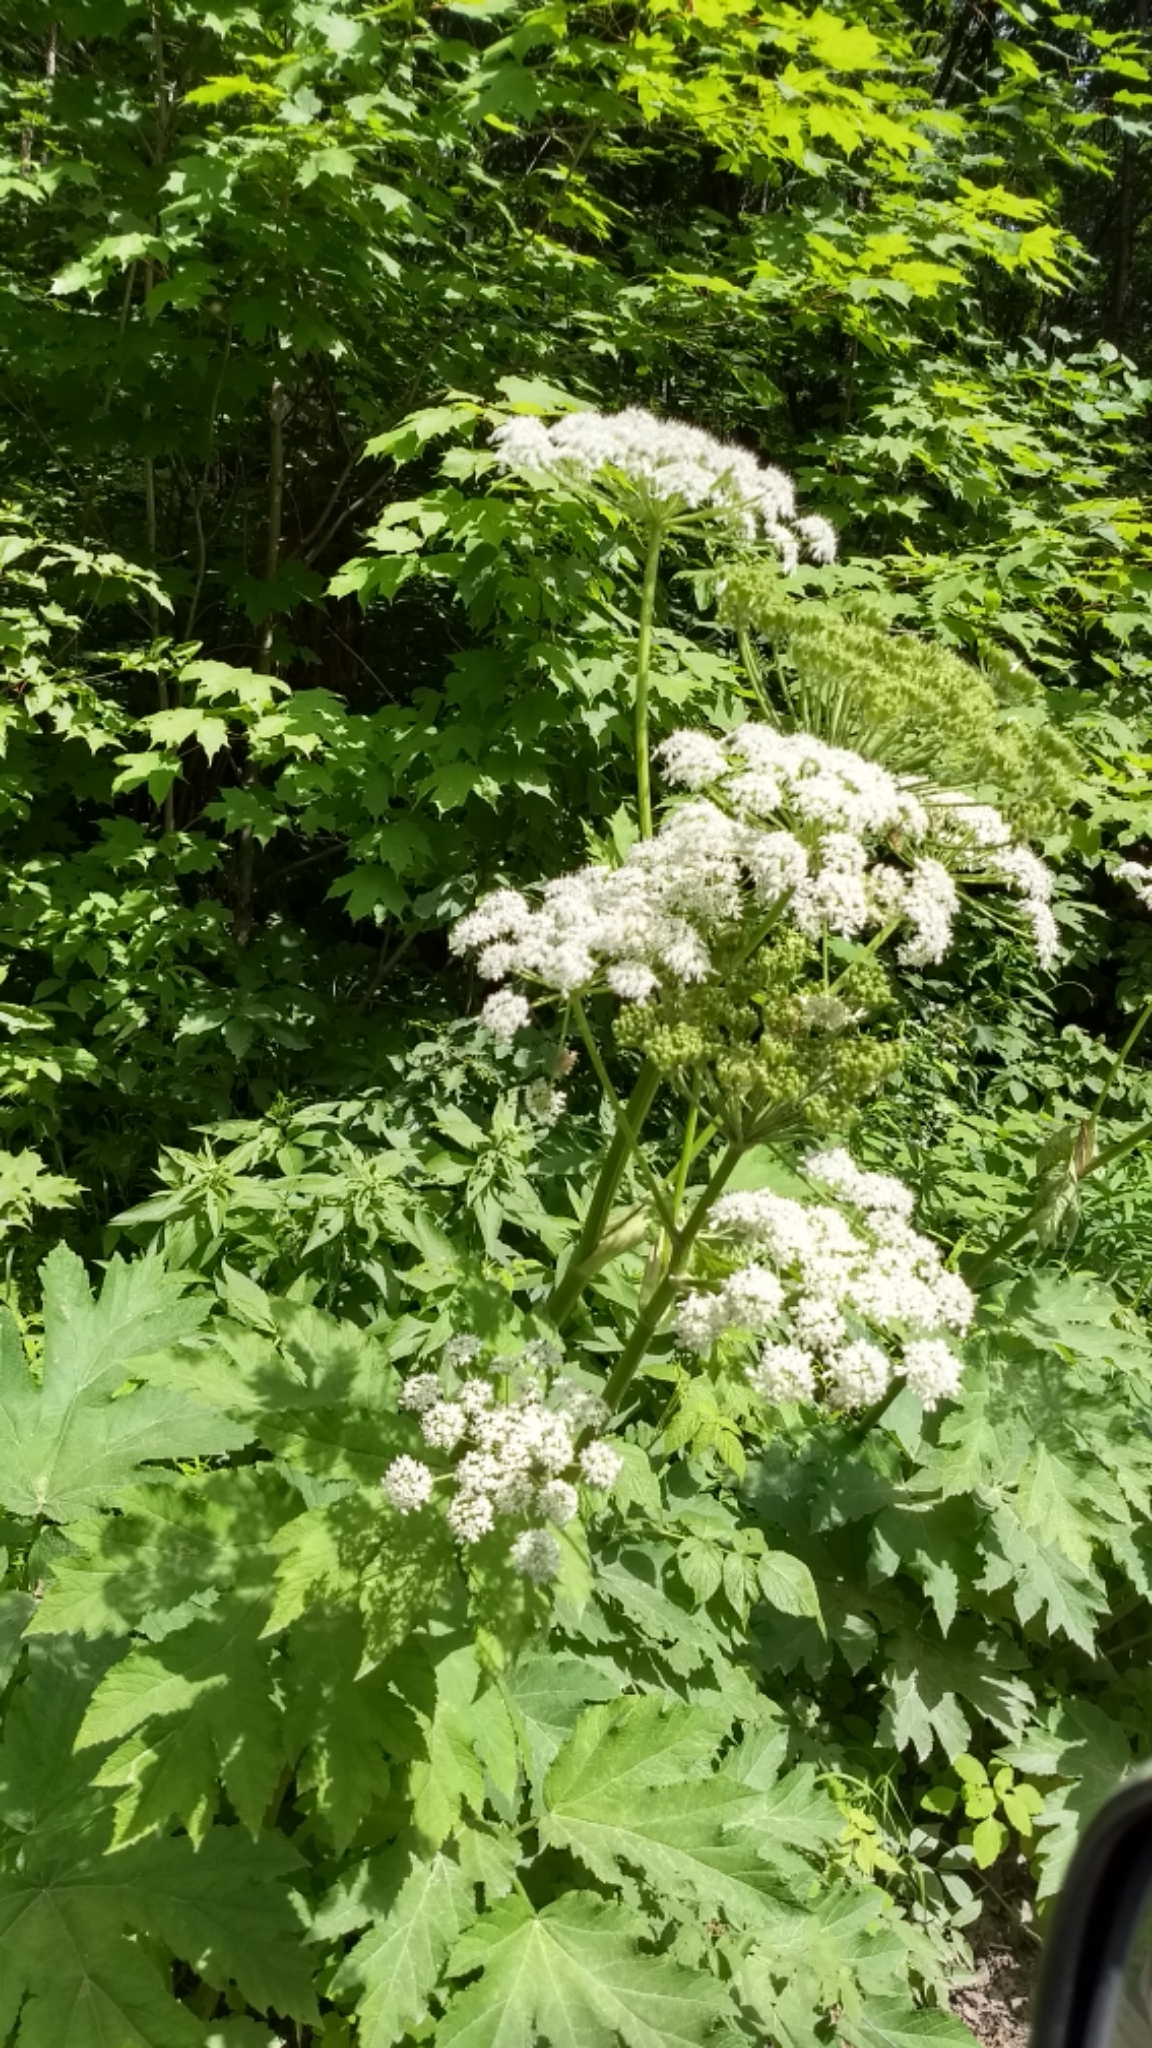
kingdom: Plantae
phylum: Tracheophyta
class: Magnoliopsida
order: Apiales
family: Apiaceae
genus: Heracleum
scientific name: Heracleum maximum
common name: American cow parsnip
